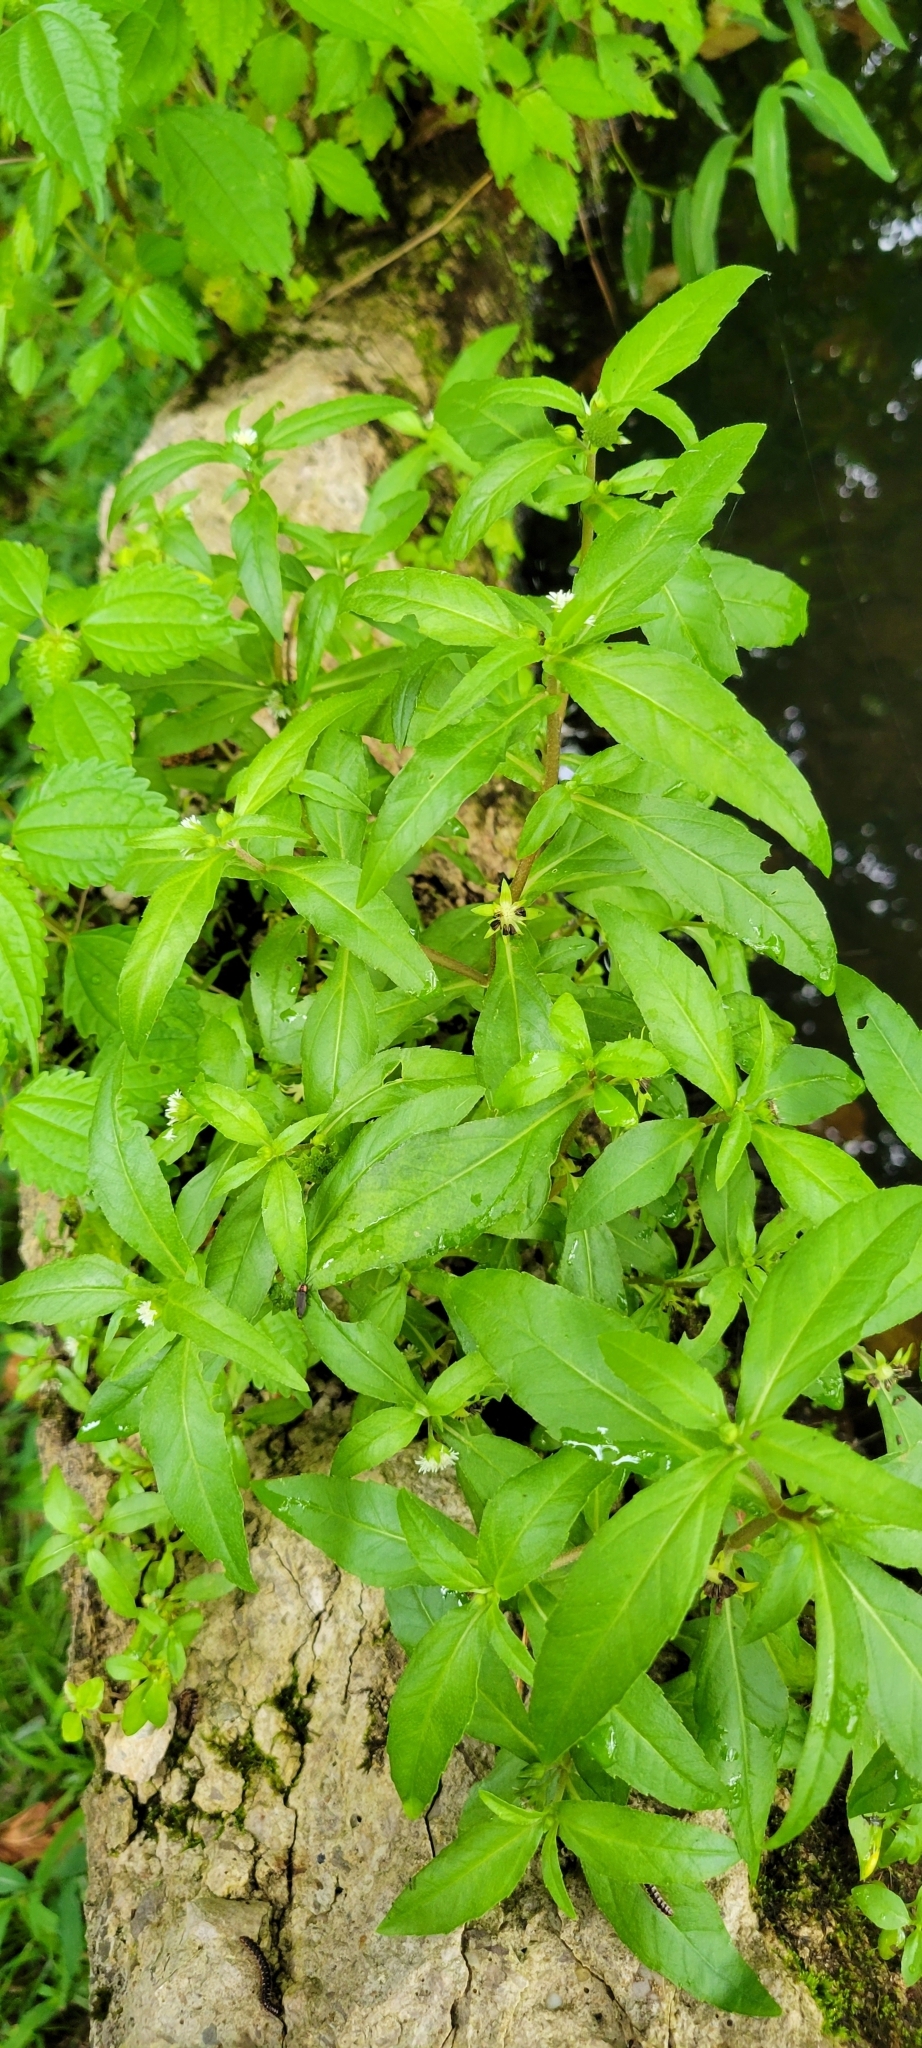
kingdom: Plantae
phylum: Tracheophyta
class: Magnoliopsida
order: Asterales
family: Asteraceae
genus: Eclipta
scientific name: Eclipta prostrata
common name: False daisy
